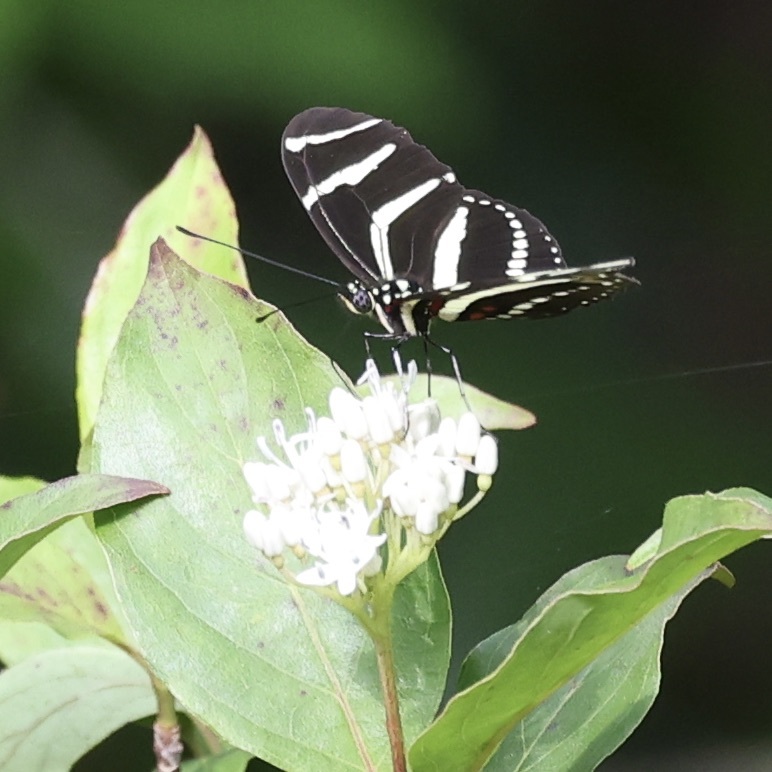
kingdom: Animalia
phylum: Arthropoda
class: Insecta
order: Lepidoptera
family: Nymphalidae
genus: Heliconius
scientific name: Heliconius charithonia
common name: Zebra long wing
